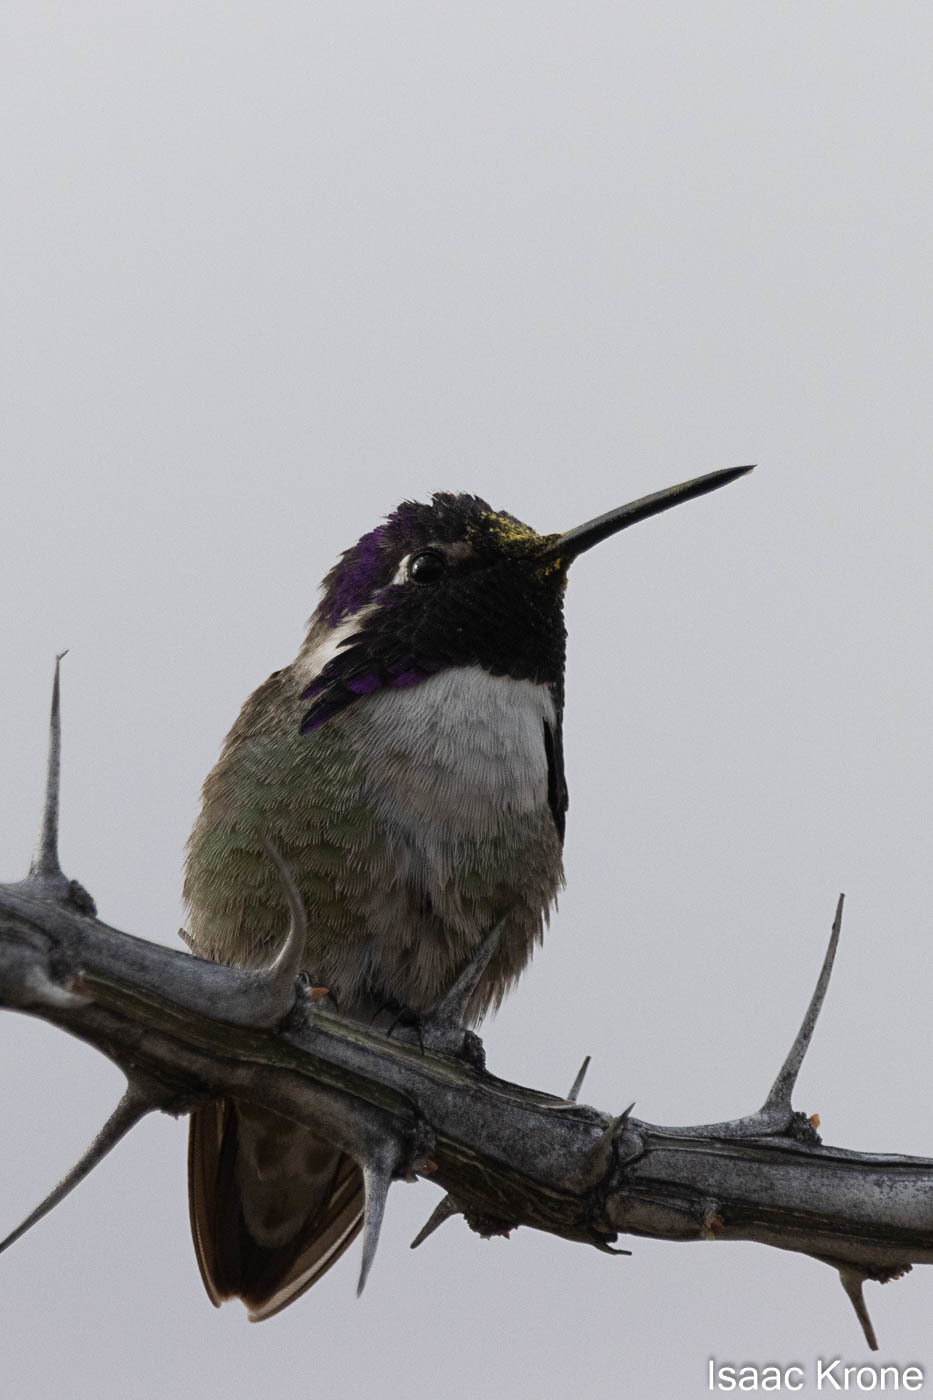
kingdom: Animalia
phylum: Chordata
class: Aves
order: Apodiformes
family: Trochilidae
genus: Calypte
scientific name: Calypte costae
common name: Costa's hummingbird
